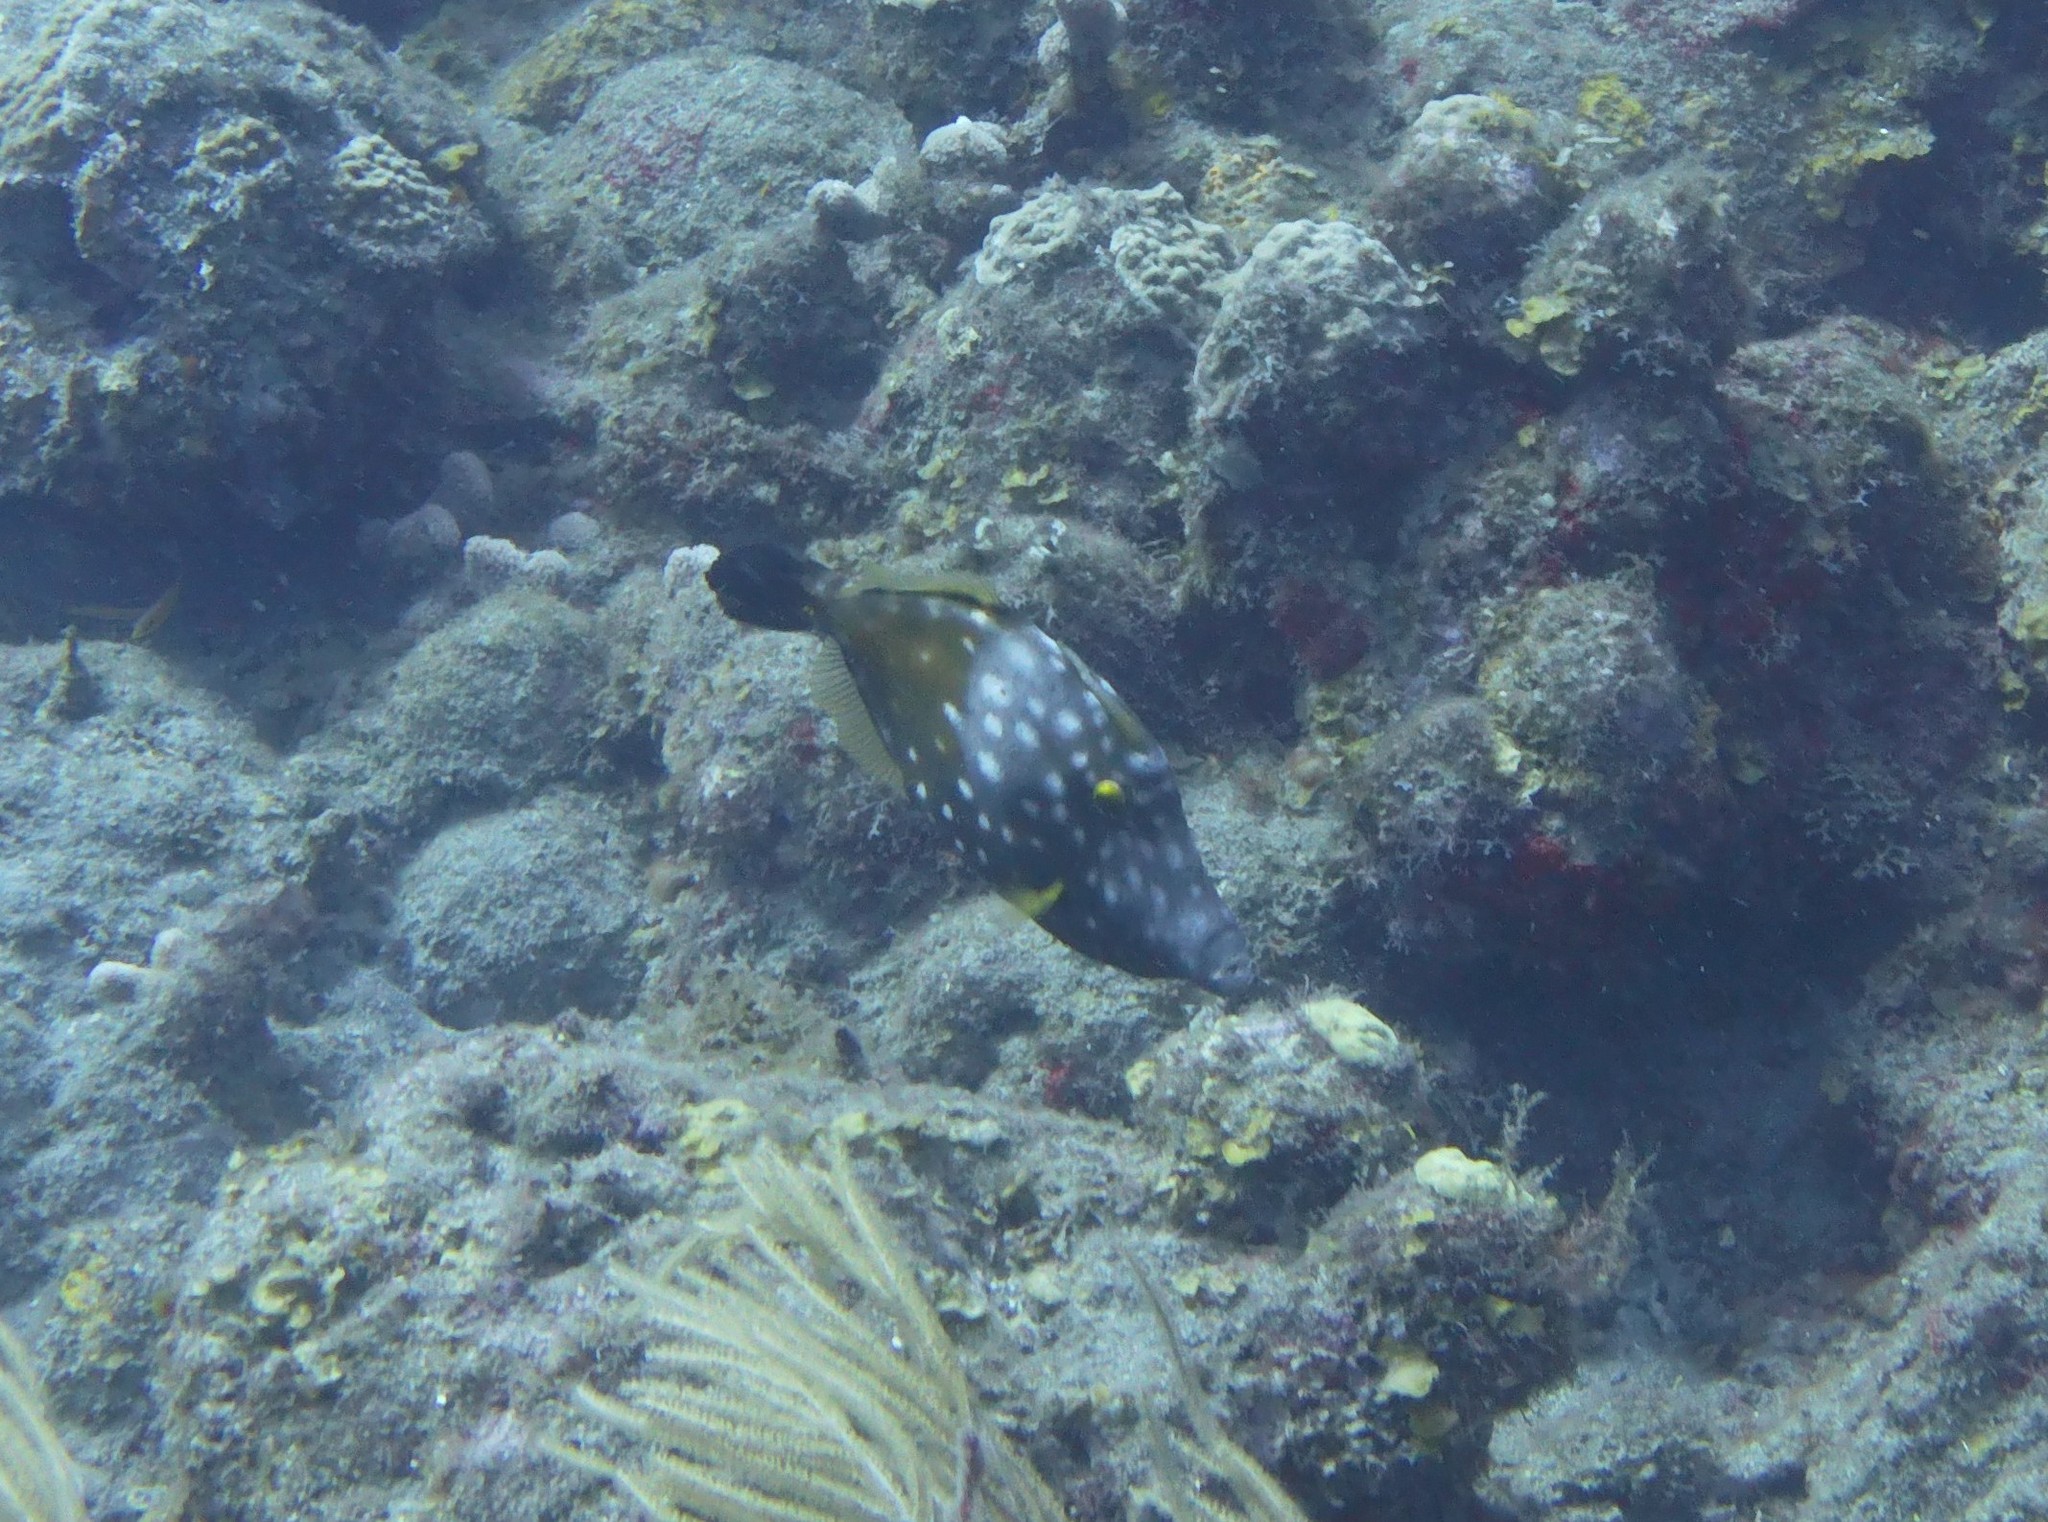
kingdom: Animalia
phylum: Chordata
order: Tetraodontiformes
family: Monacanthidae
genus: Cantherhines
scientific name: Cantherhines macrocerus
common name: Whitespotted filefish
